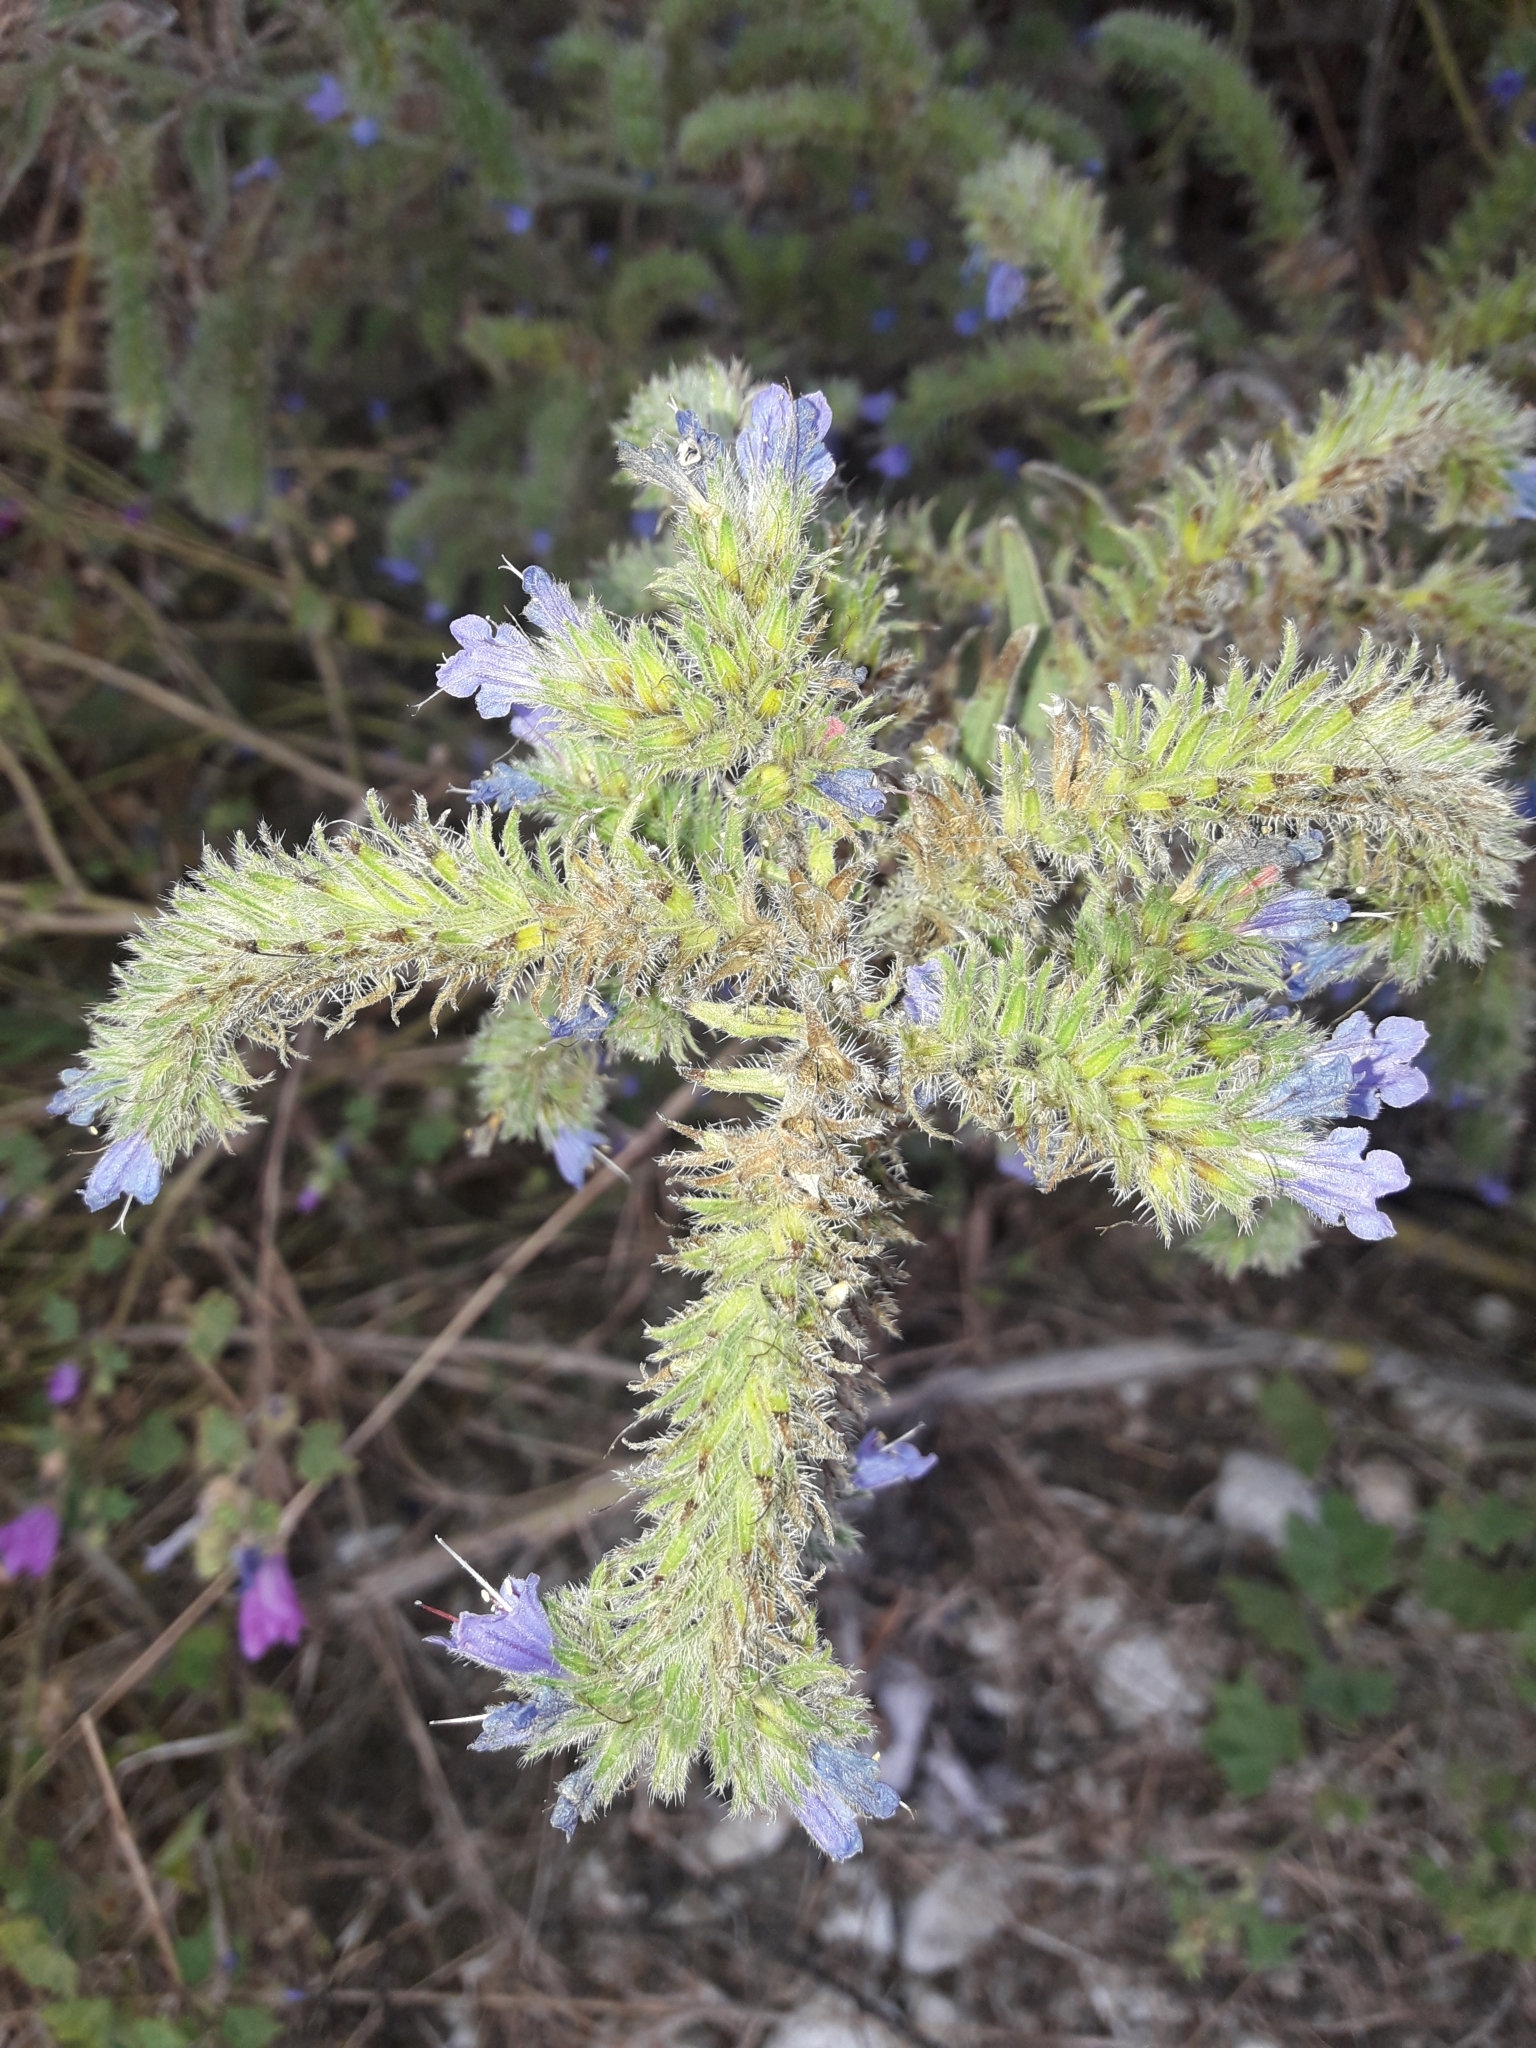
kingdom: Plantae
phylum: Tracheophyta
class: Magnoliopsida
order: Boraginales
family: Boraginaceae
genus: Echium
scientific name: Echium vulgare
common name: Common viper's bugloss
